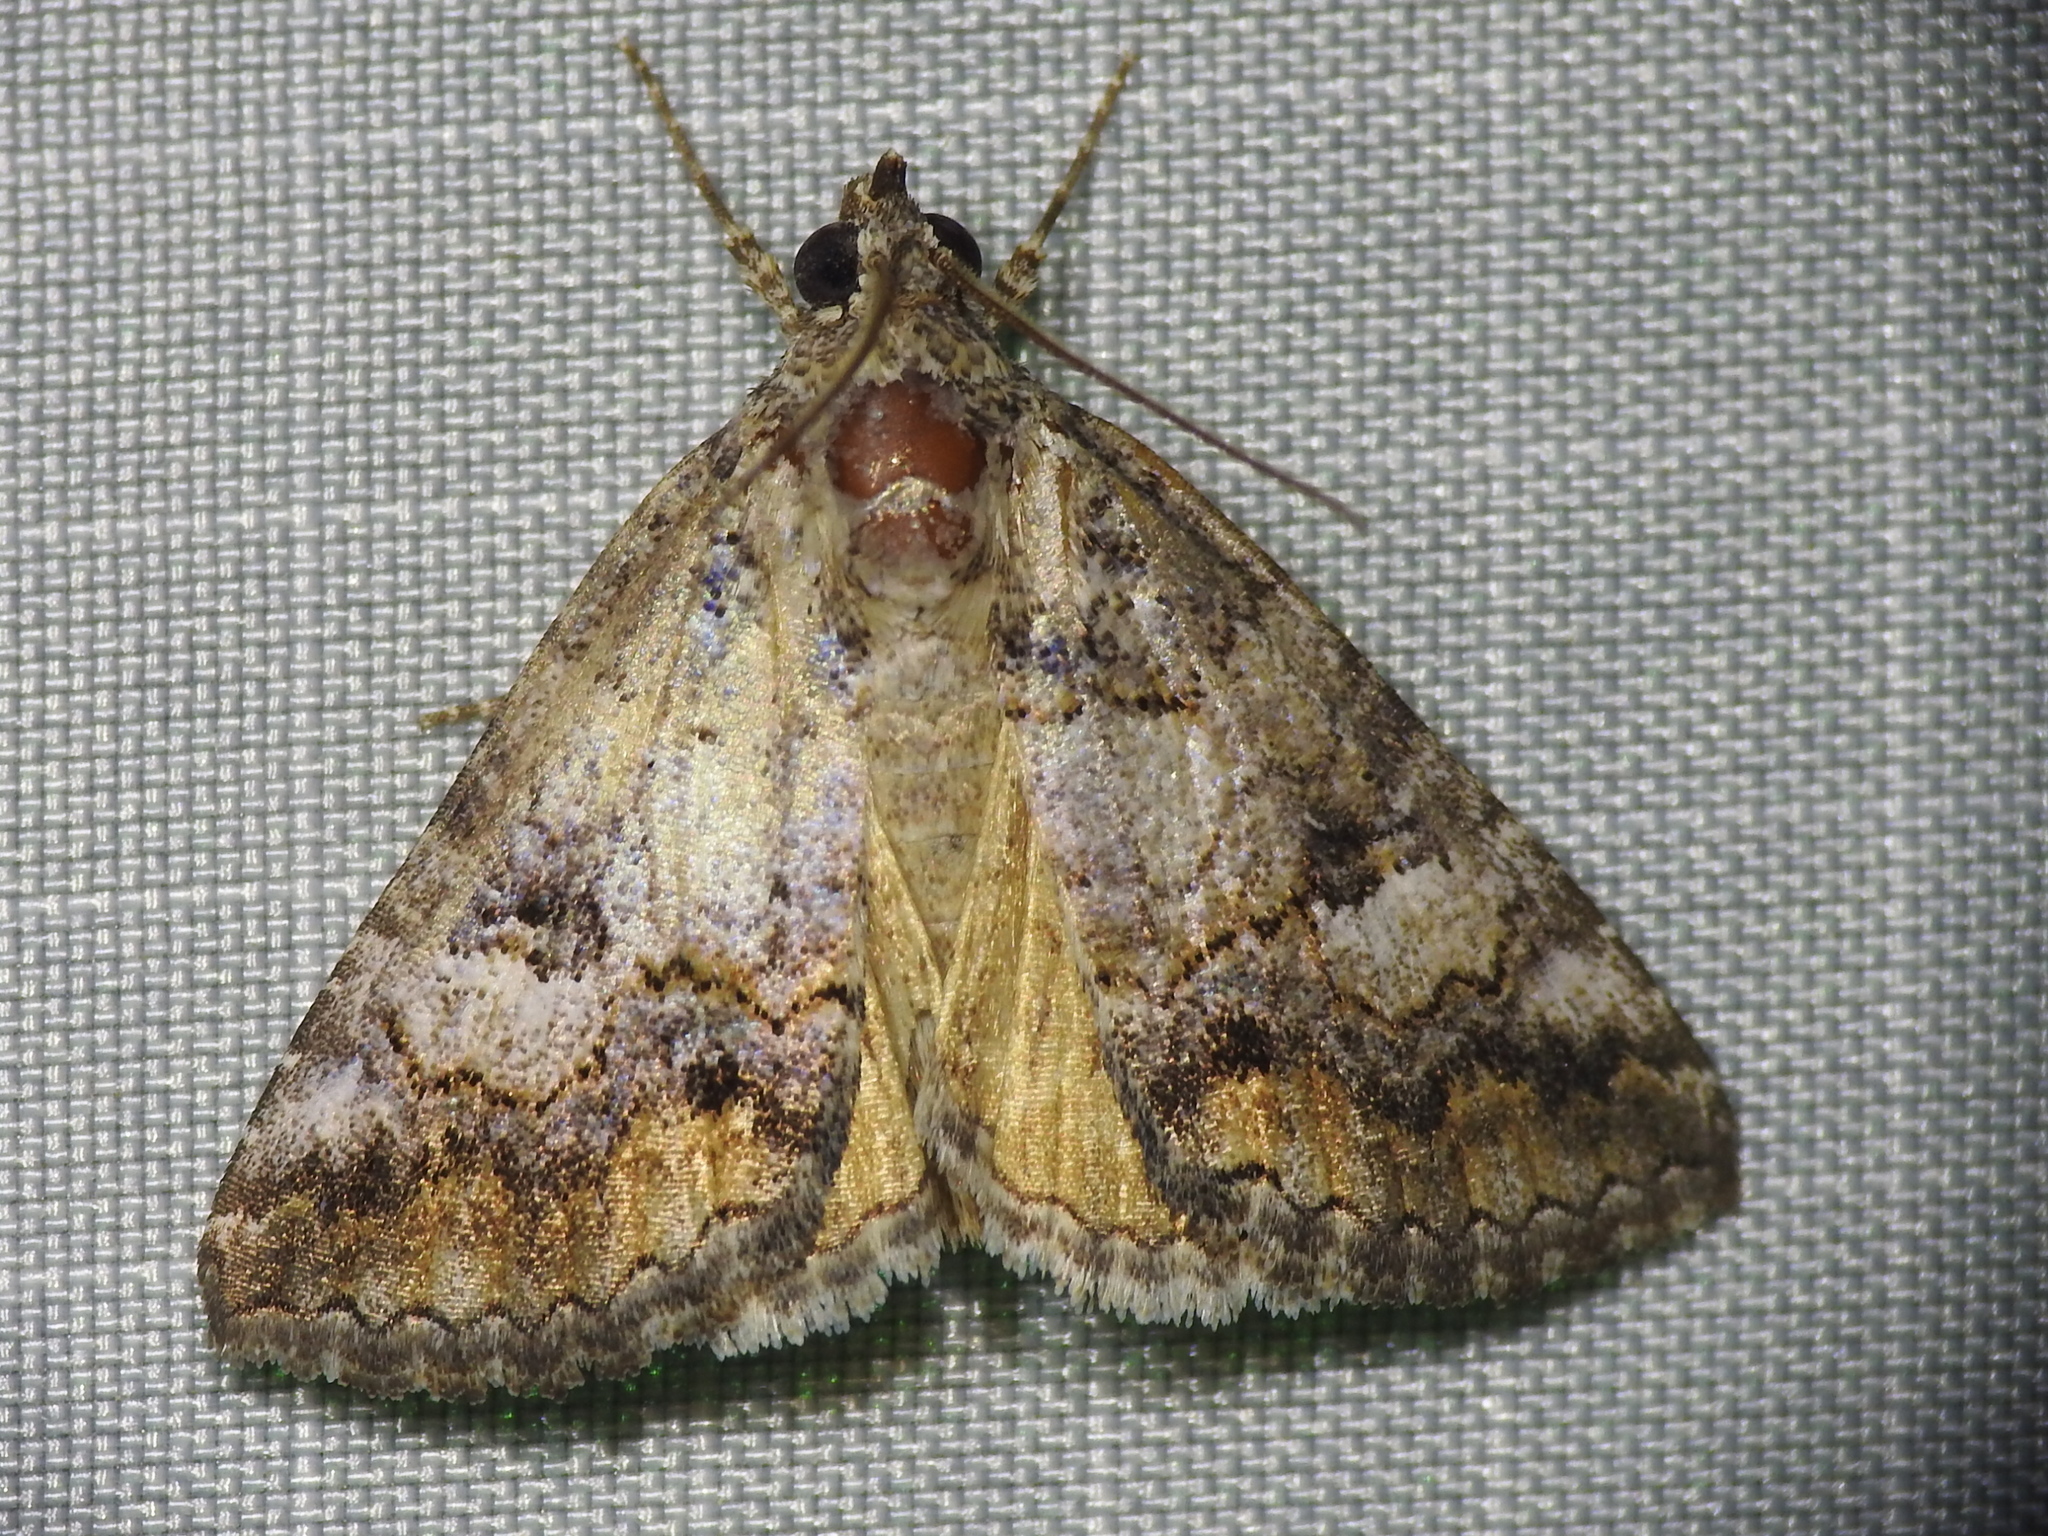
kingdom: Animalia
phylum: Arthropoda
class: Insecta
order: Lepidoptera
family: Erebidae
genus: Eubolina
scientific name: Eubolina impartialis
